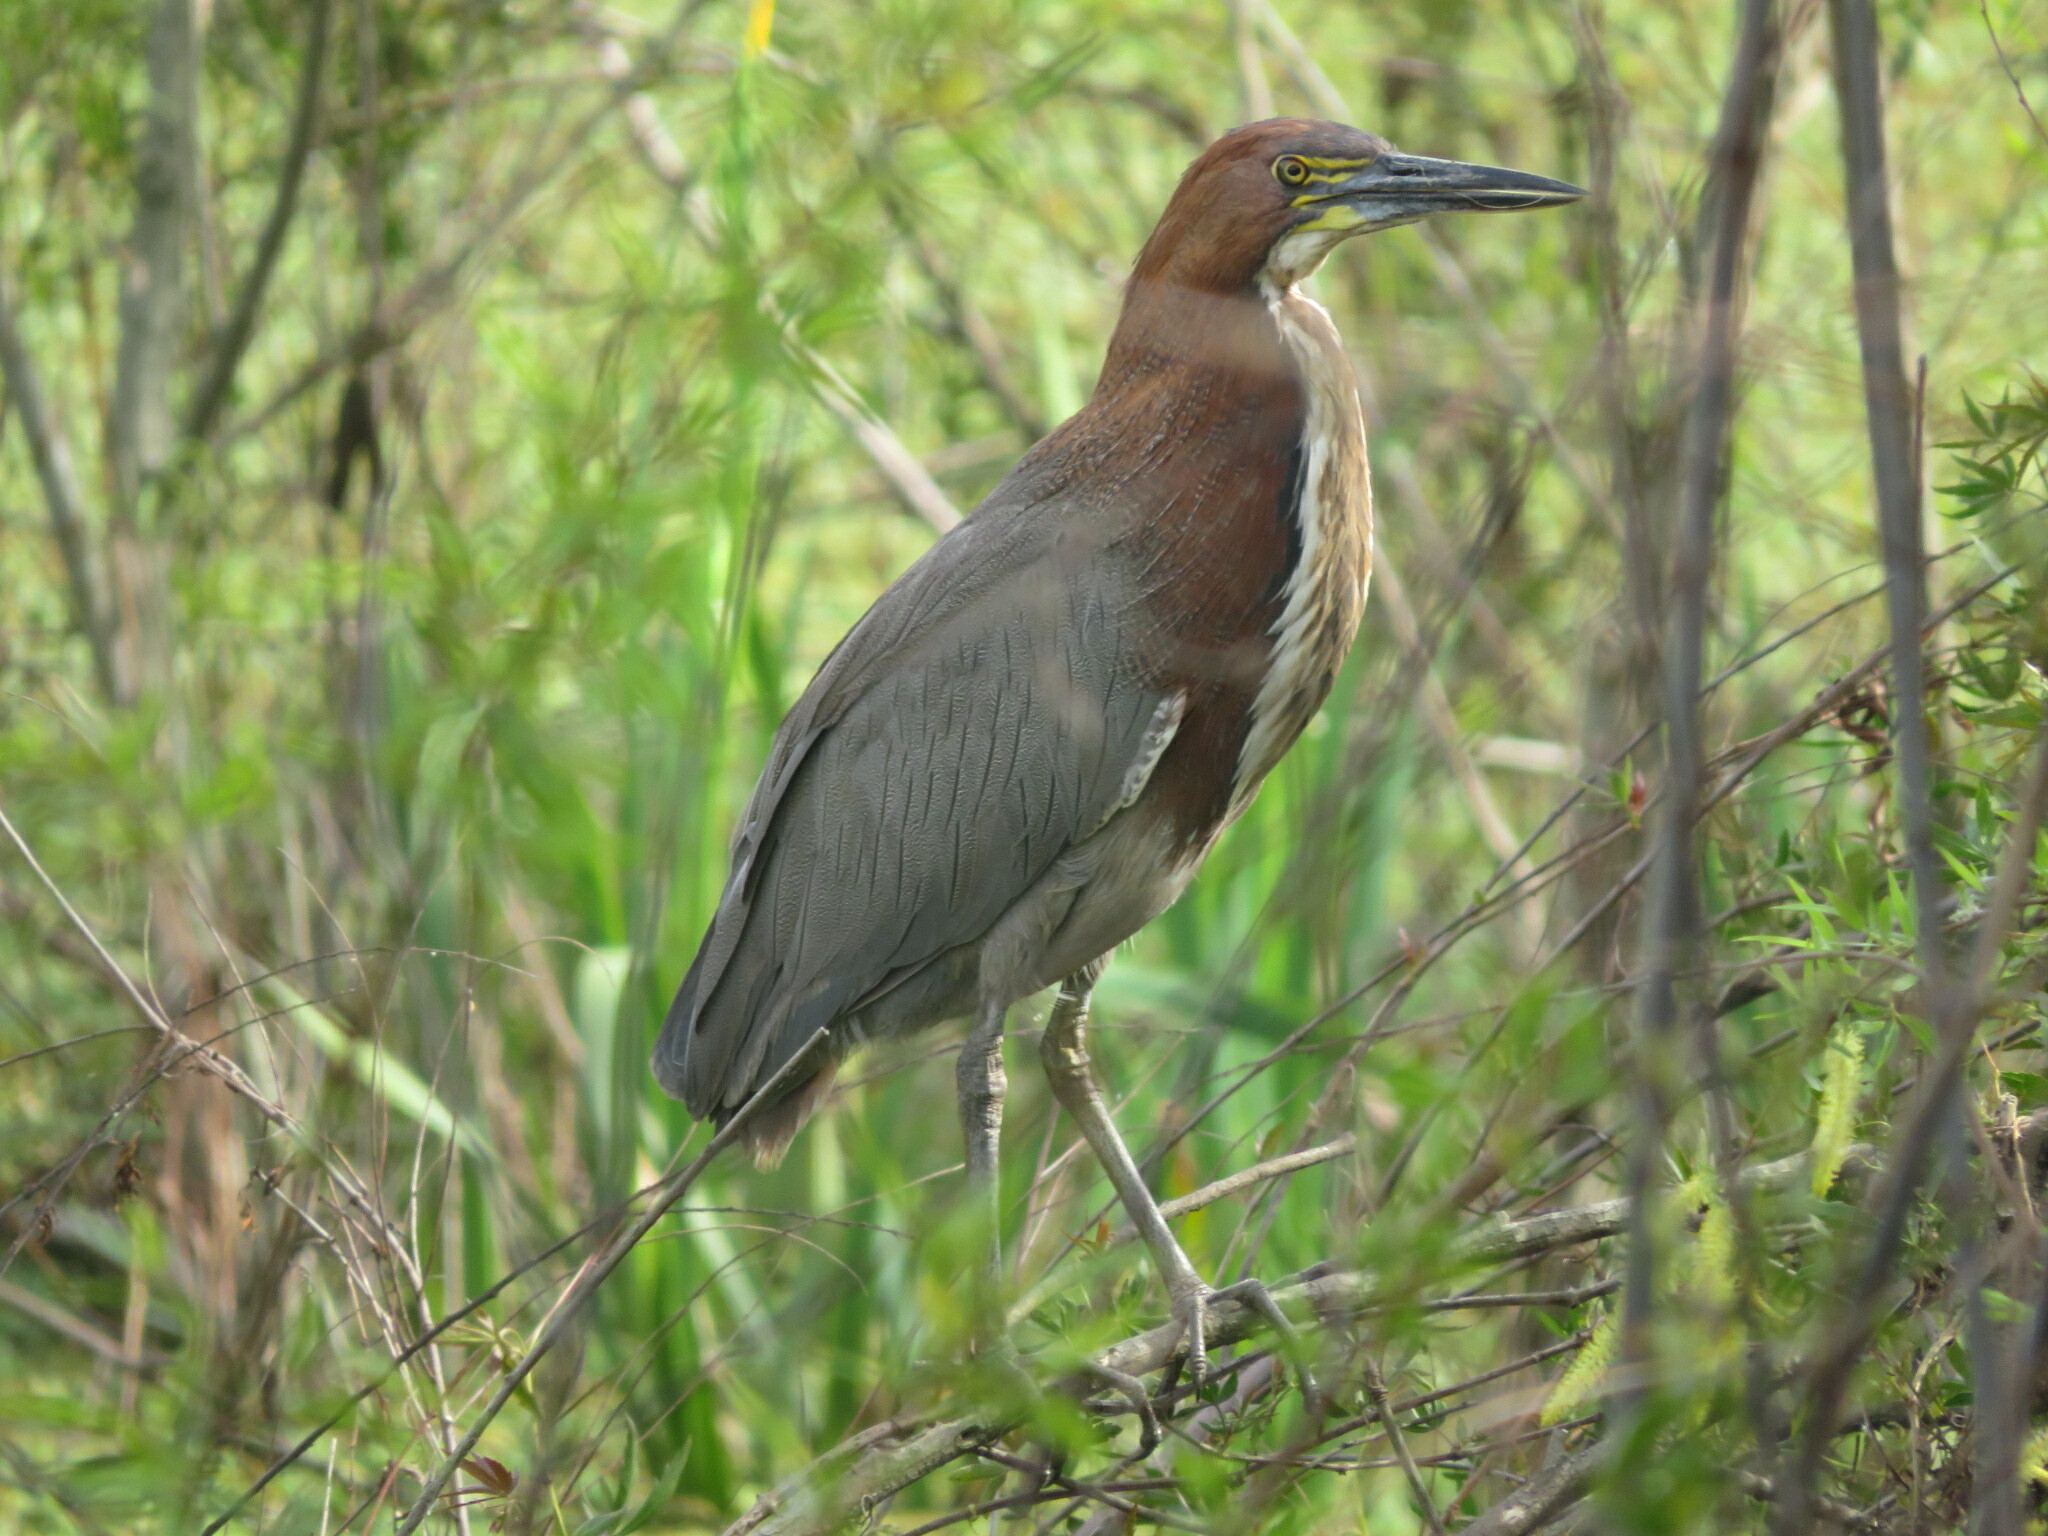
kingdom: Animalia
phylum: Chordata
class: Aves
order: Pelecaniformes
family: Ardeidae
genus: Tigrisoma
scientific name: Tigrisoma lineatum
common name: Rufescent tiger-heron
